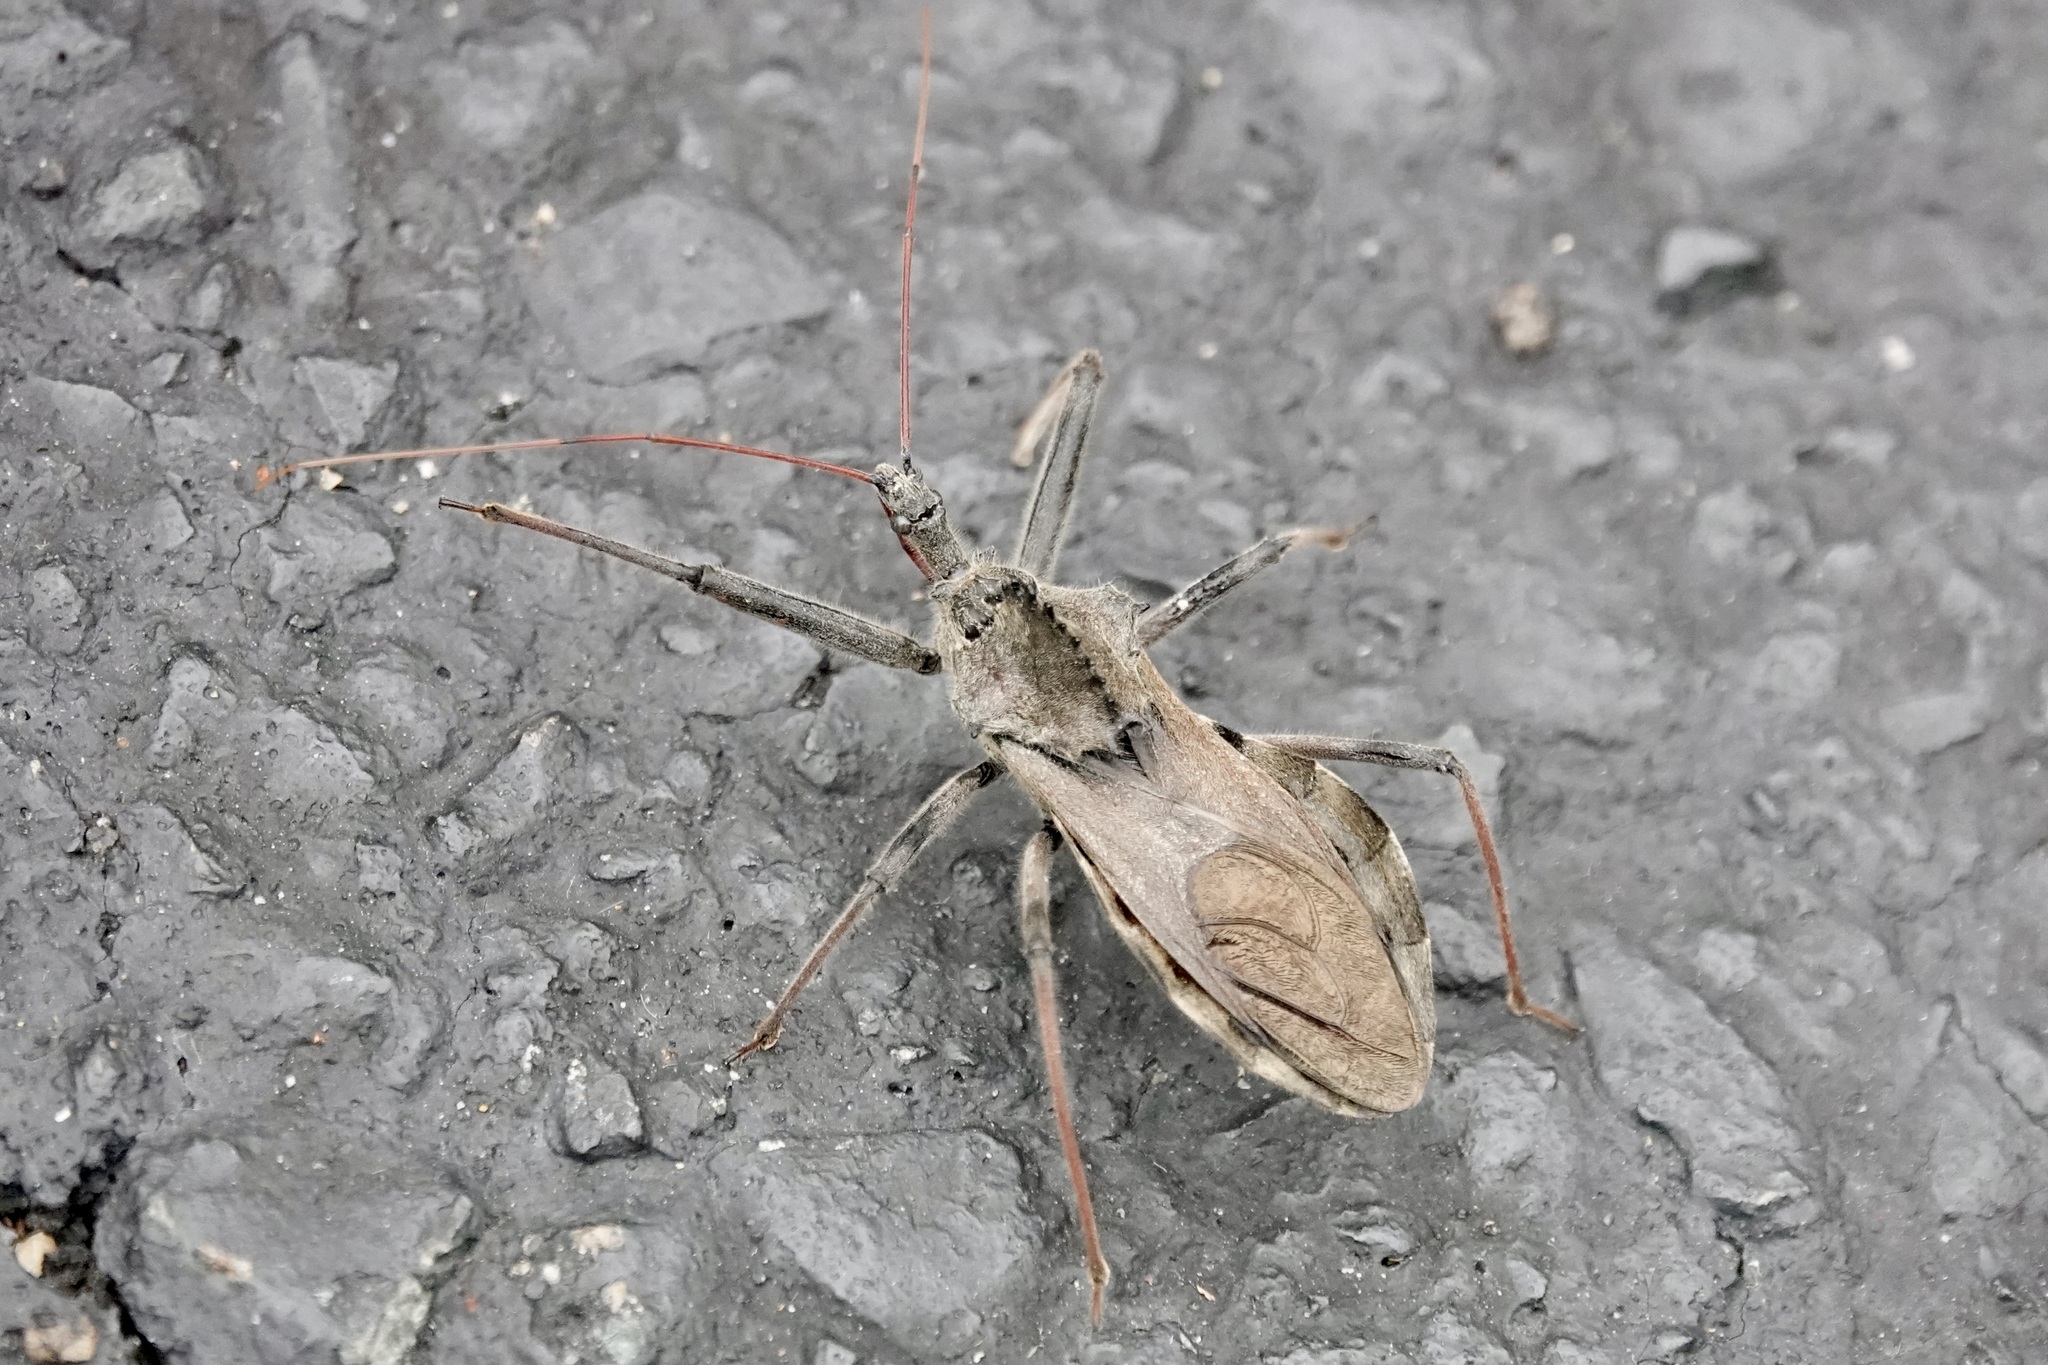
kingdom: Animalia
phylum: Arthropoda
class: Insecta
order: Hemiptera
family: Reduviidae
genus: Arilus
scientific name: Arilus cristatus
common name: North american wheel bug
